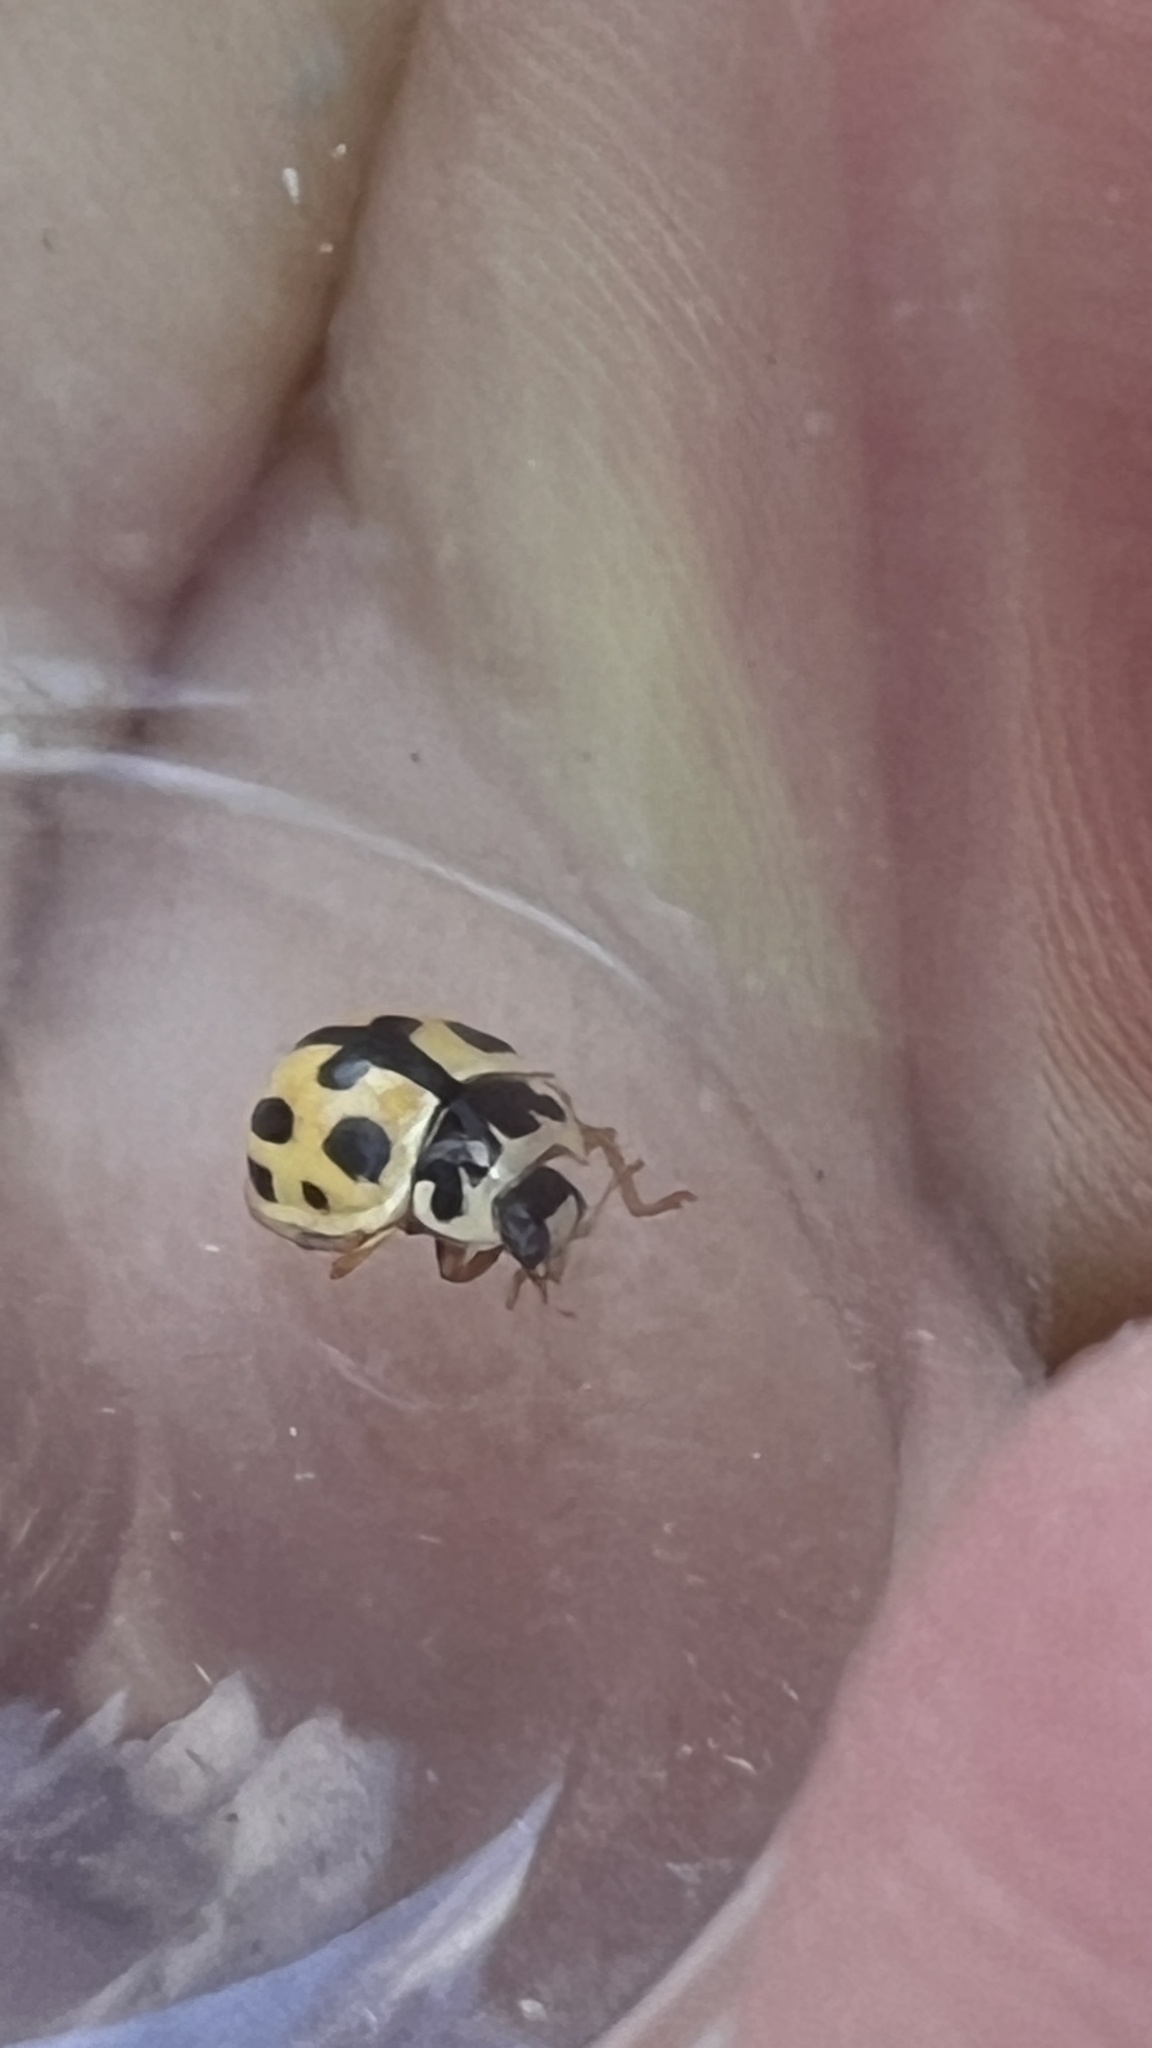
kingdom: Animalia
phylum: Arthropoda
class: Insecta
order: Coleoptera
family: Coccinellidae
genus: Propylaea
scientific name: Propylaea quatuordecimpunctata
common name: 14-spotted ladybird beetle
